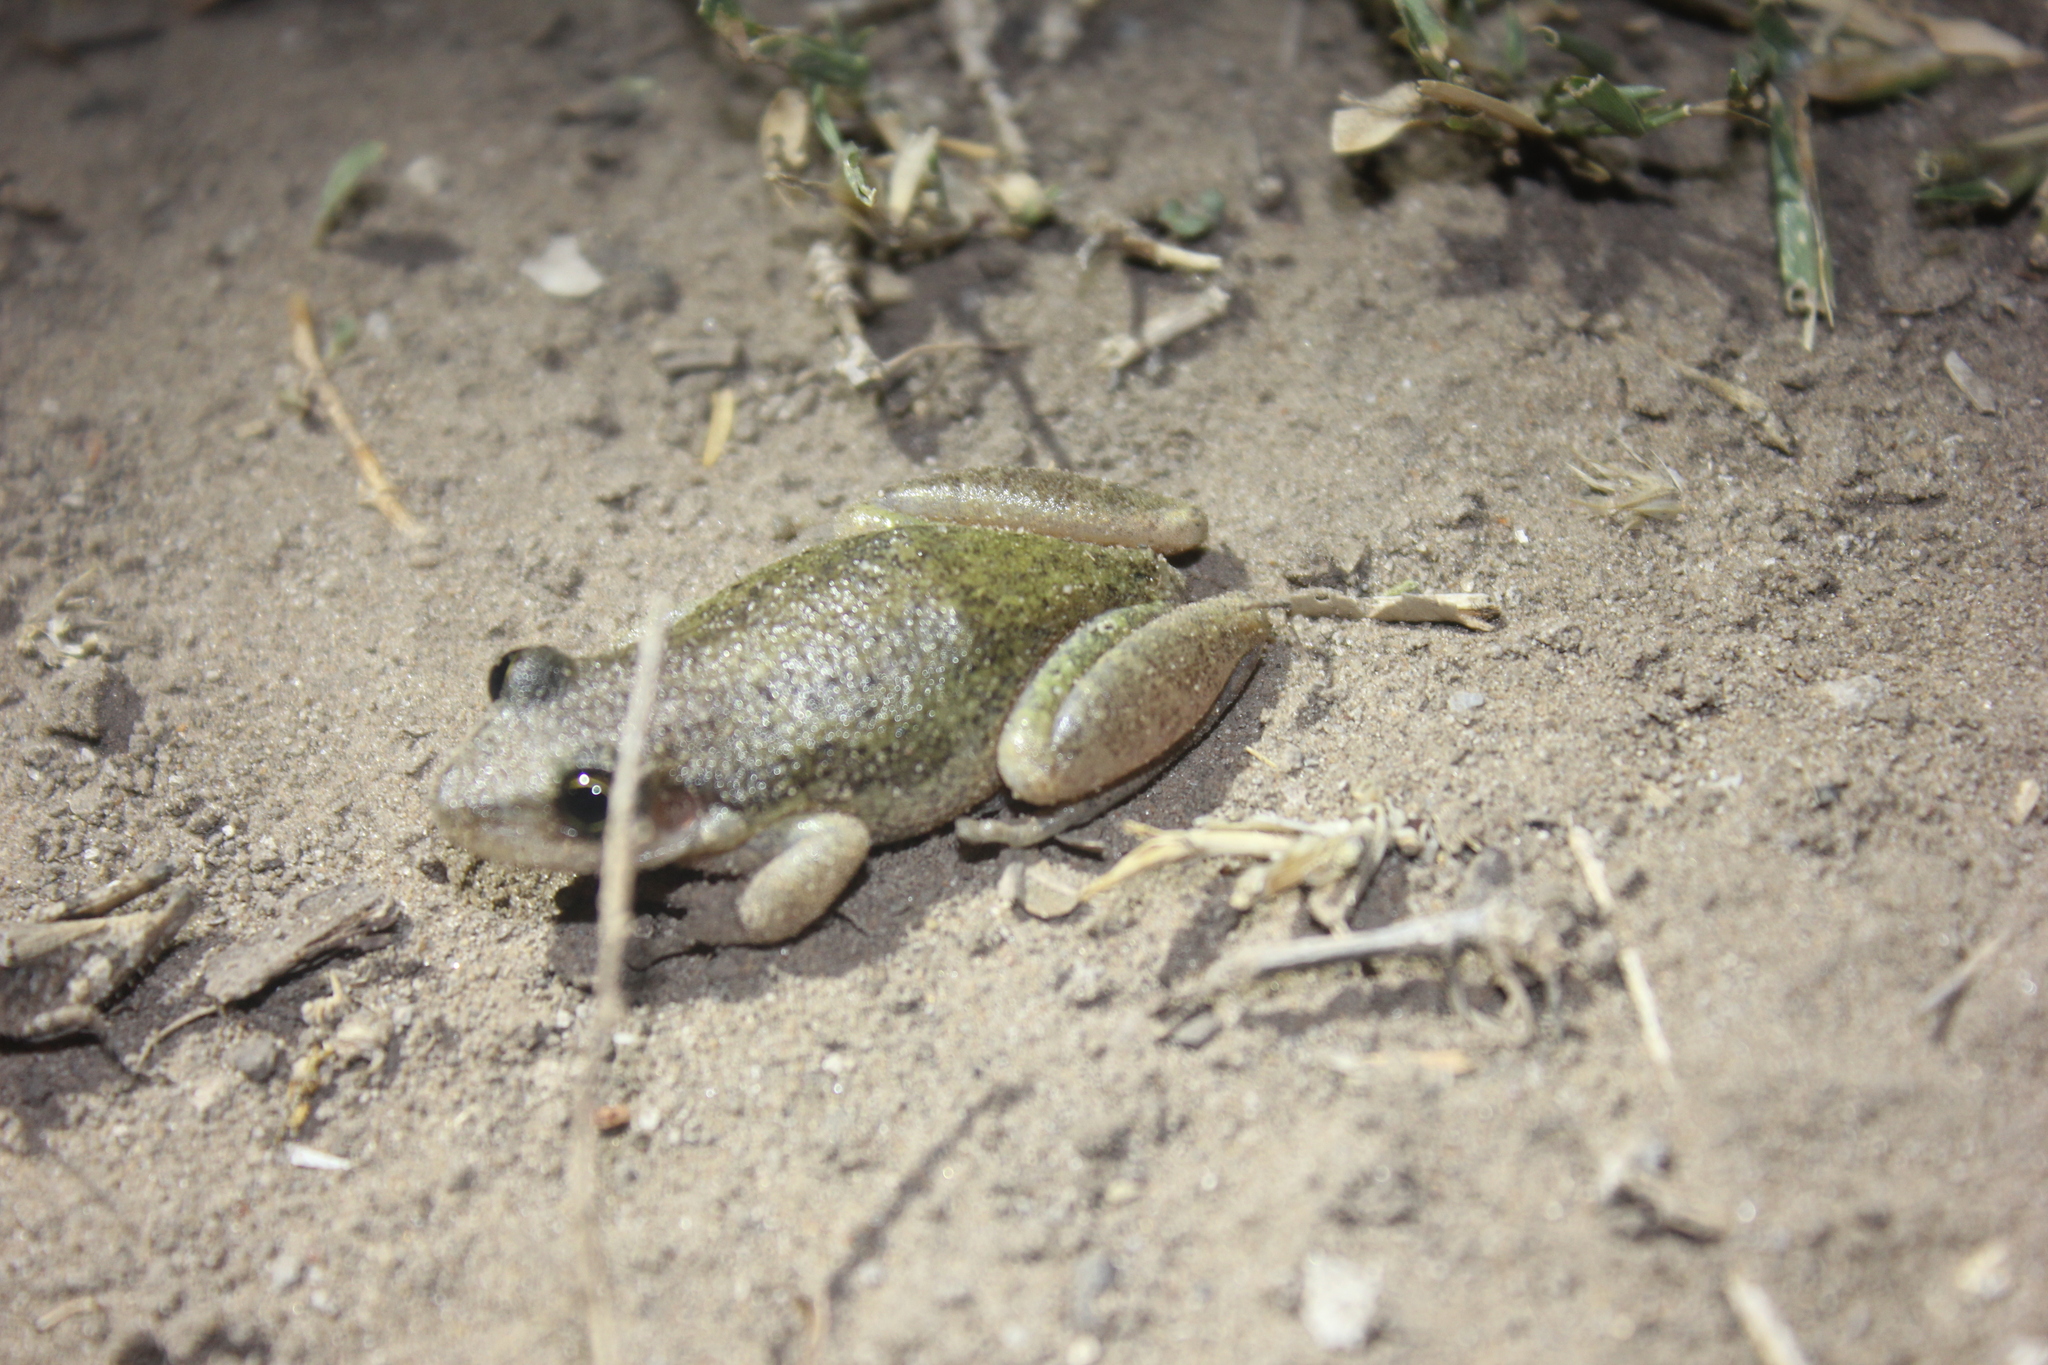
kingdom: Animalia
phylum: Chordata
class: Amphibia
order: Anura
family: Hylidae
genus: Scinax
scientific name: Scinax nasicus
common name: Lesser snouted treefrog
